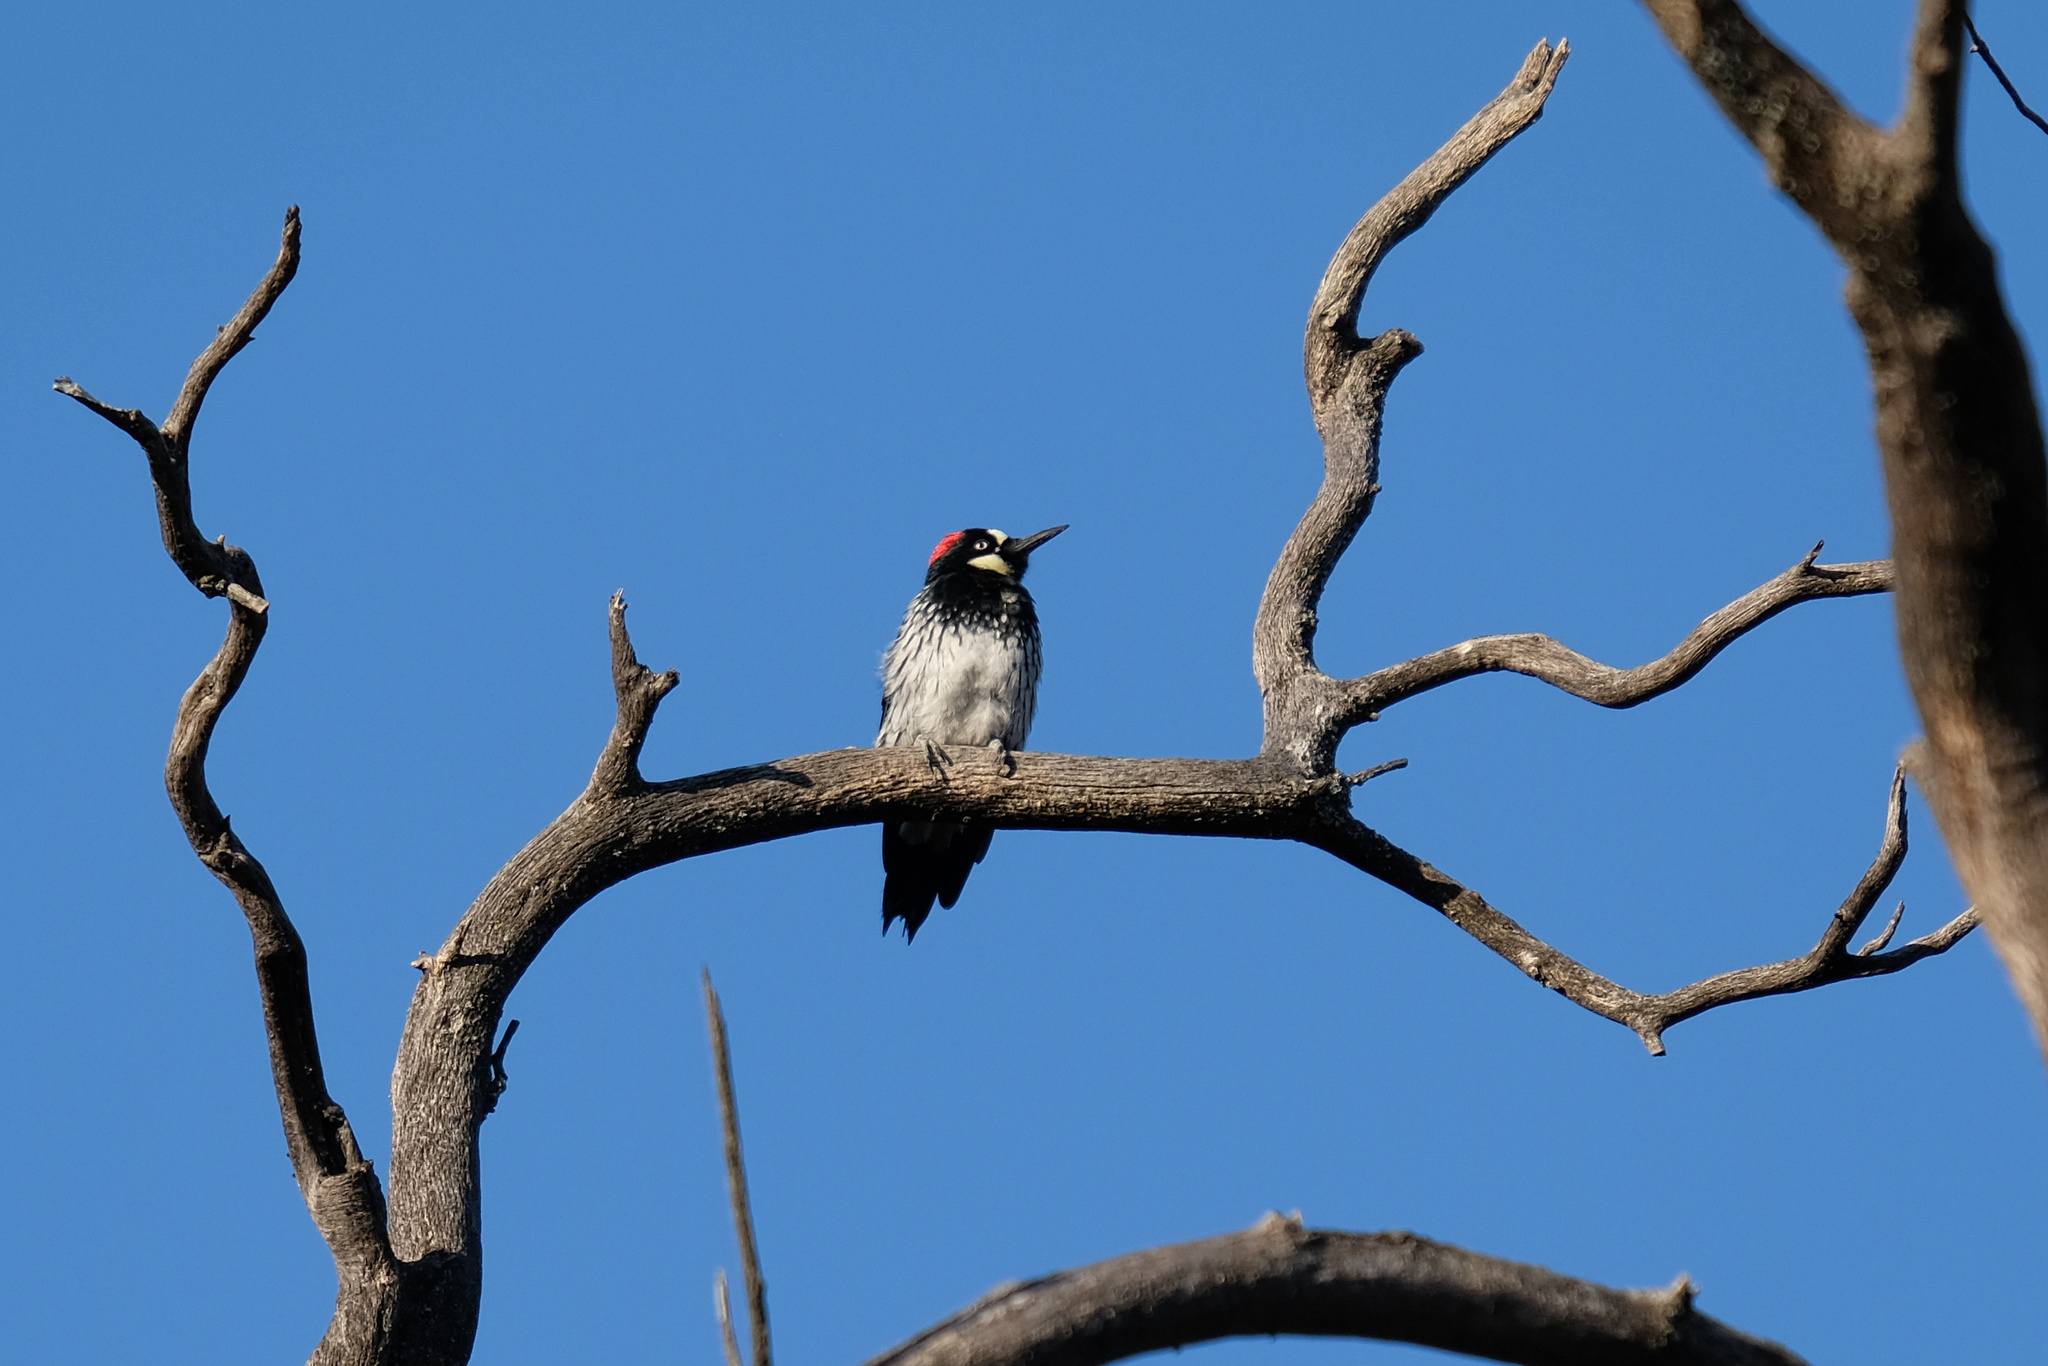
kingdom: Animalia
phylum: Chordata
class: Aves
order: Piciformes
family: Picidae
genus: Melanerpes
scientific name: Melanerpes formicivorus
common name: Acorn woodpecker
